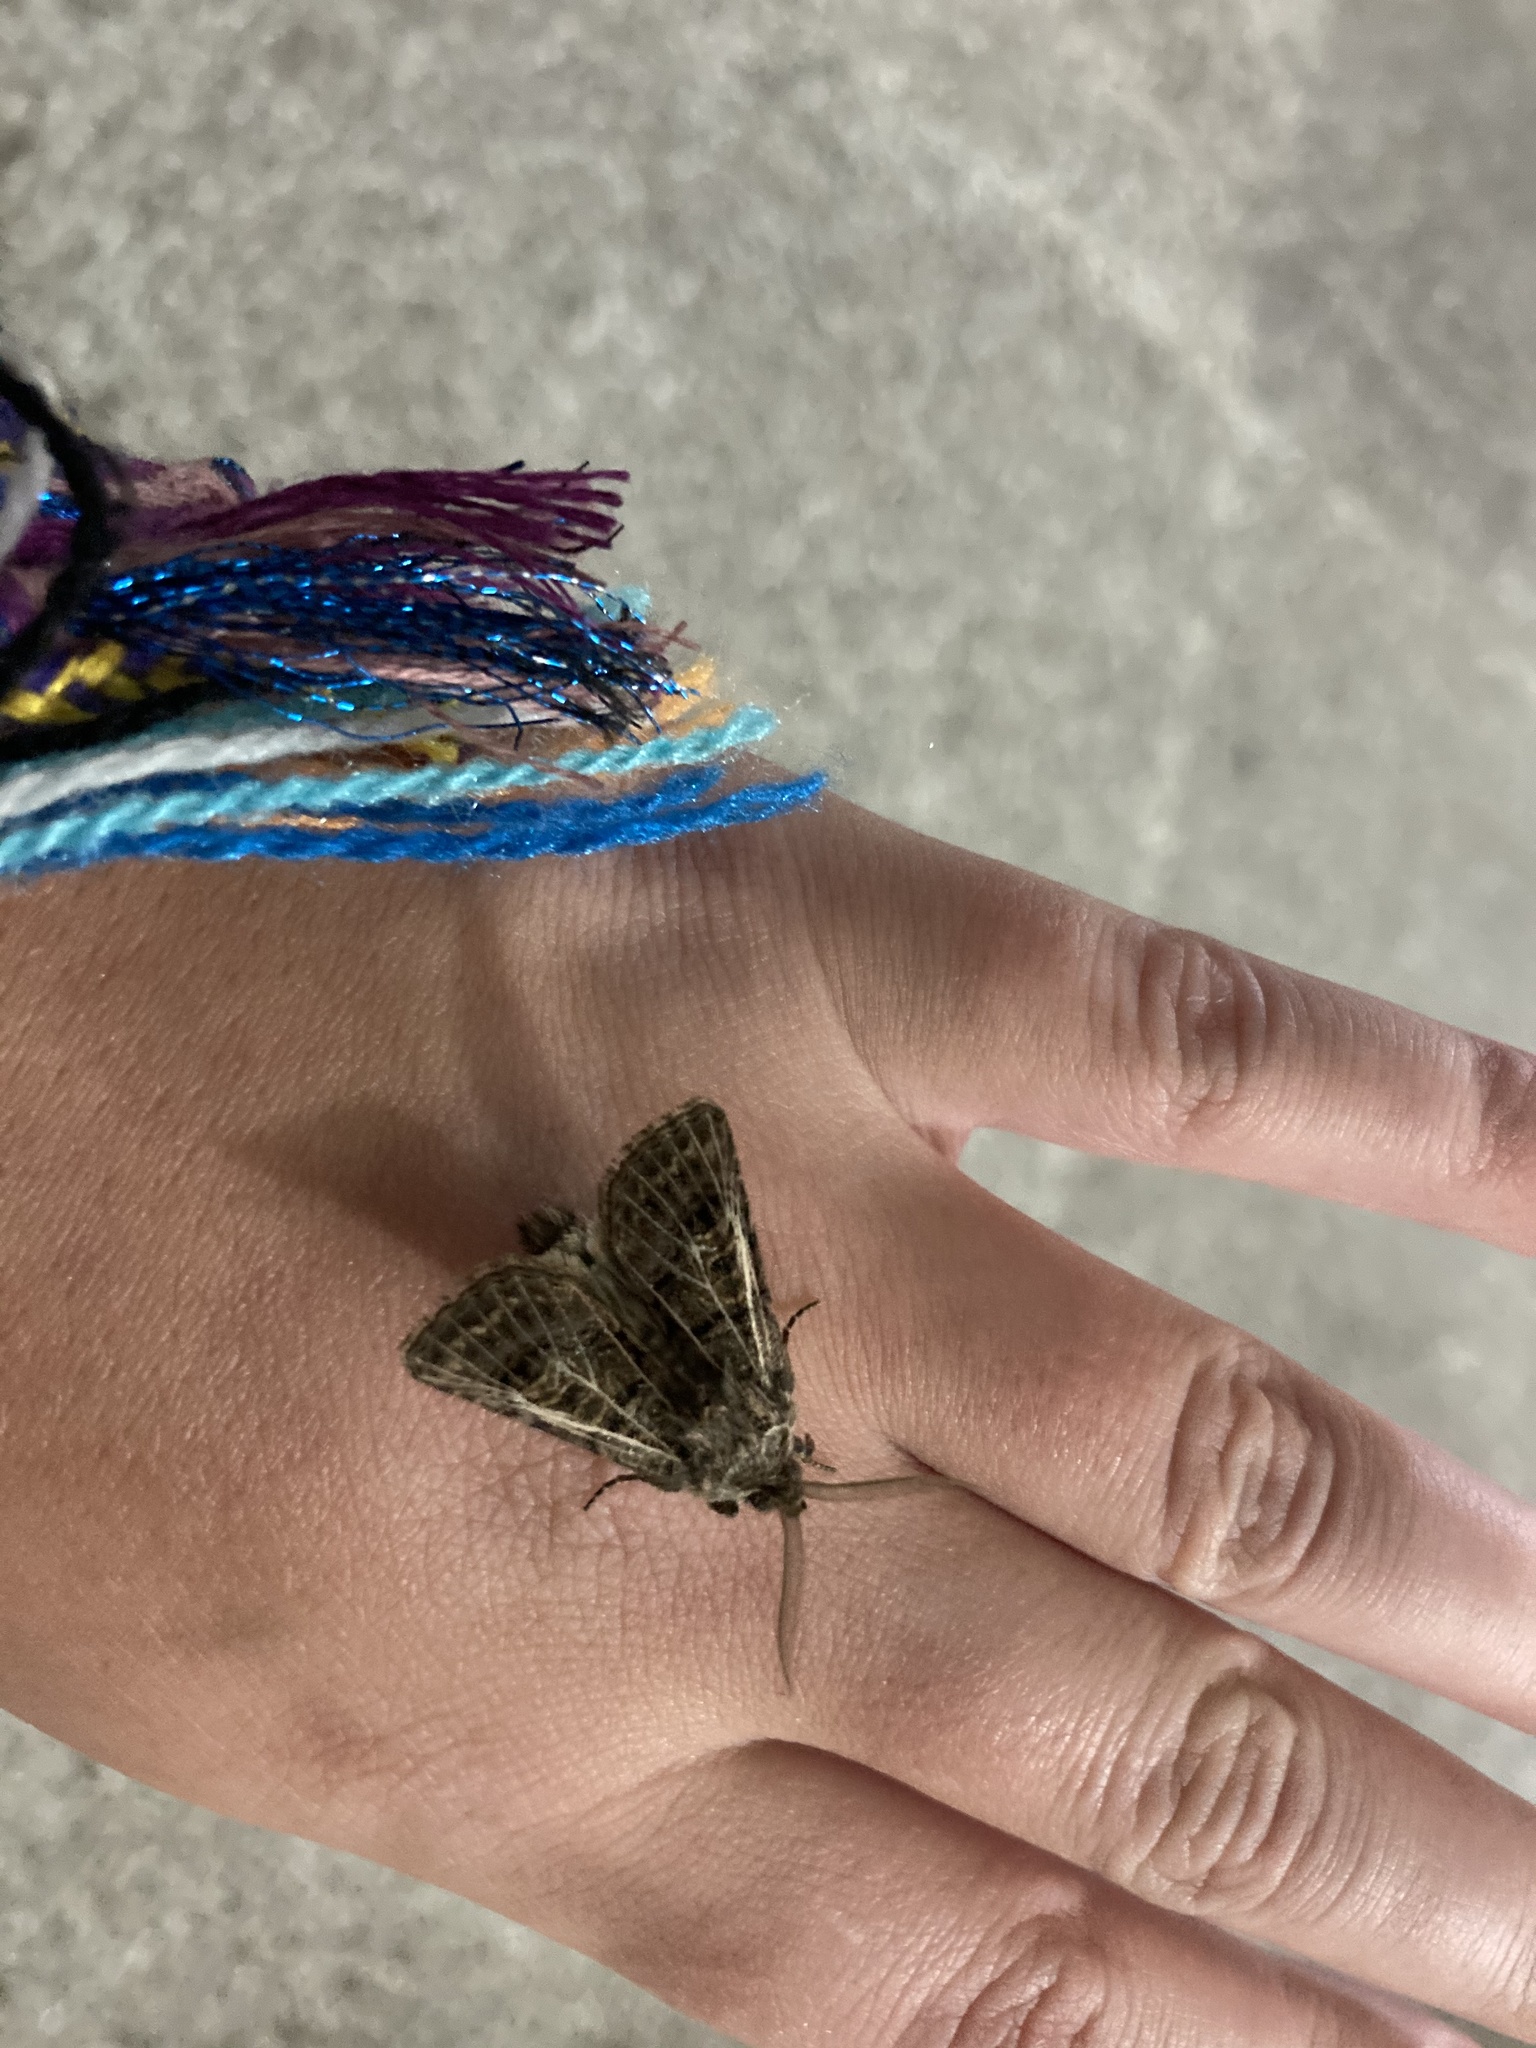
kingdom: Animalia
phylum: Arthropoda
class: Insecta
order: Lepidoptera
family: Noctuidae
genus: Tholera
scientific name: Tholera decimalis
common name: Feathered gothic
